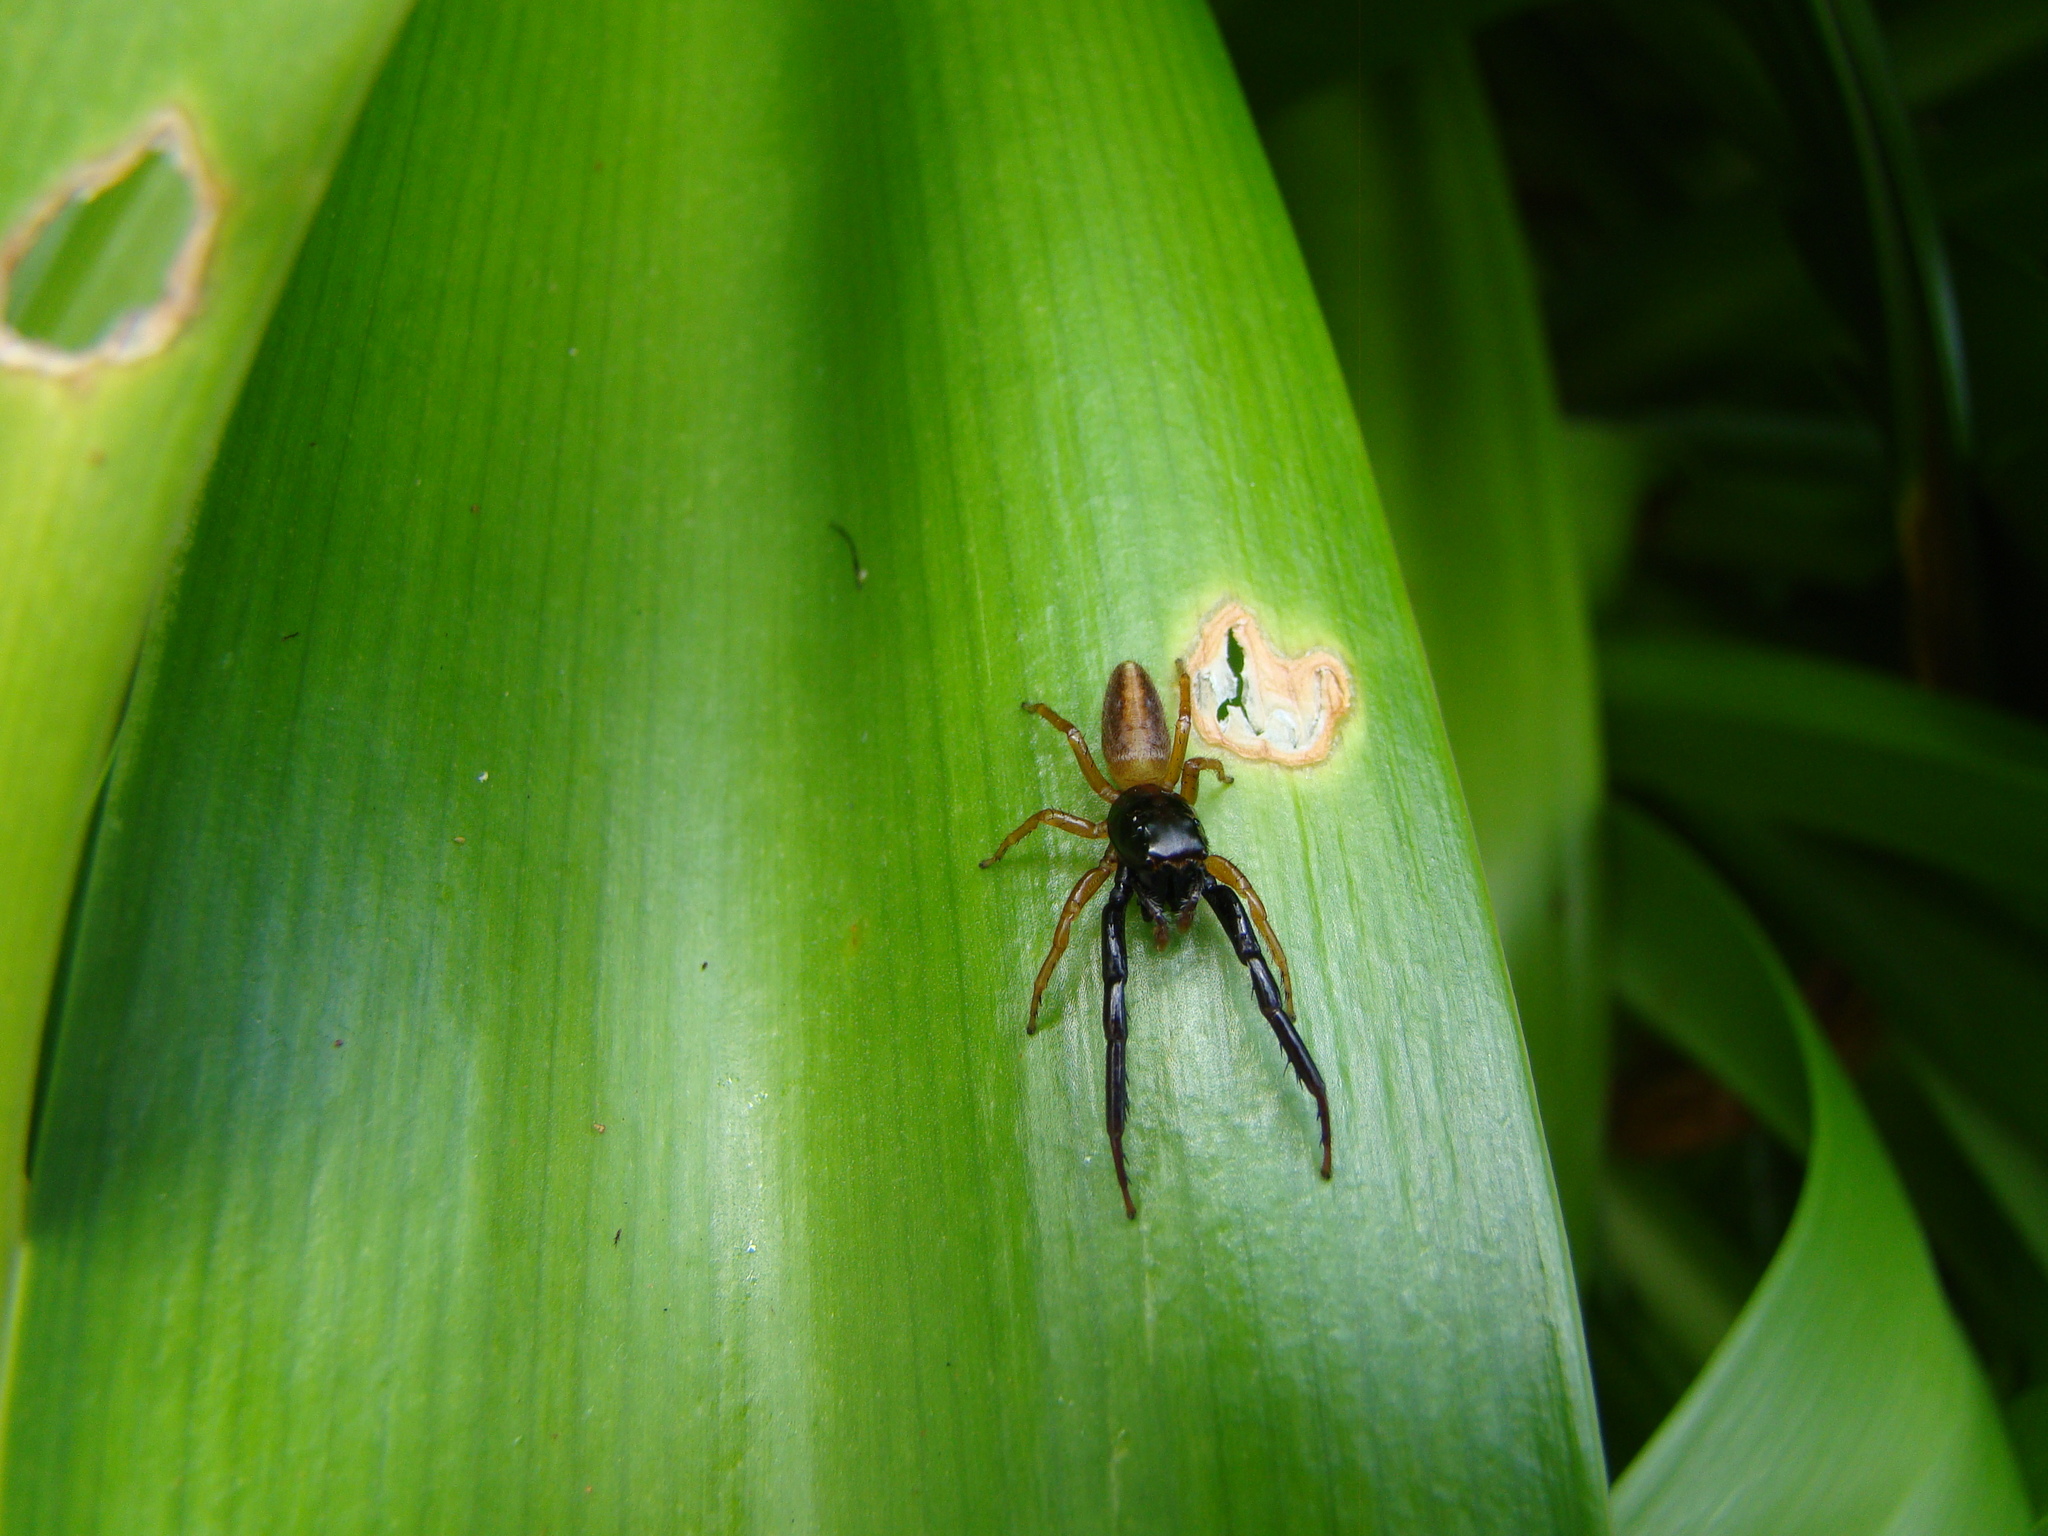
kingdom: Animalia
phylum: Arthropoda
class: Arachnida
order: Araneae
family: Salticidae
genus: Trite
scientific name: Trite planiceps
